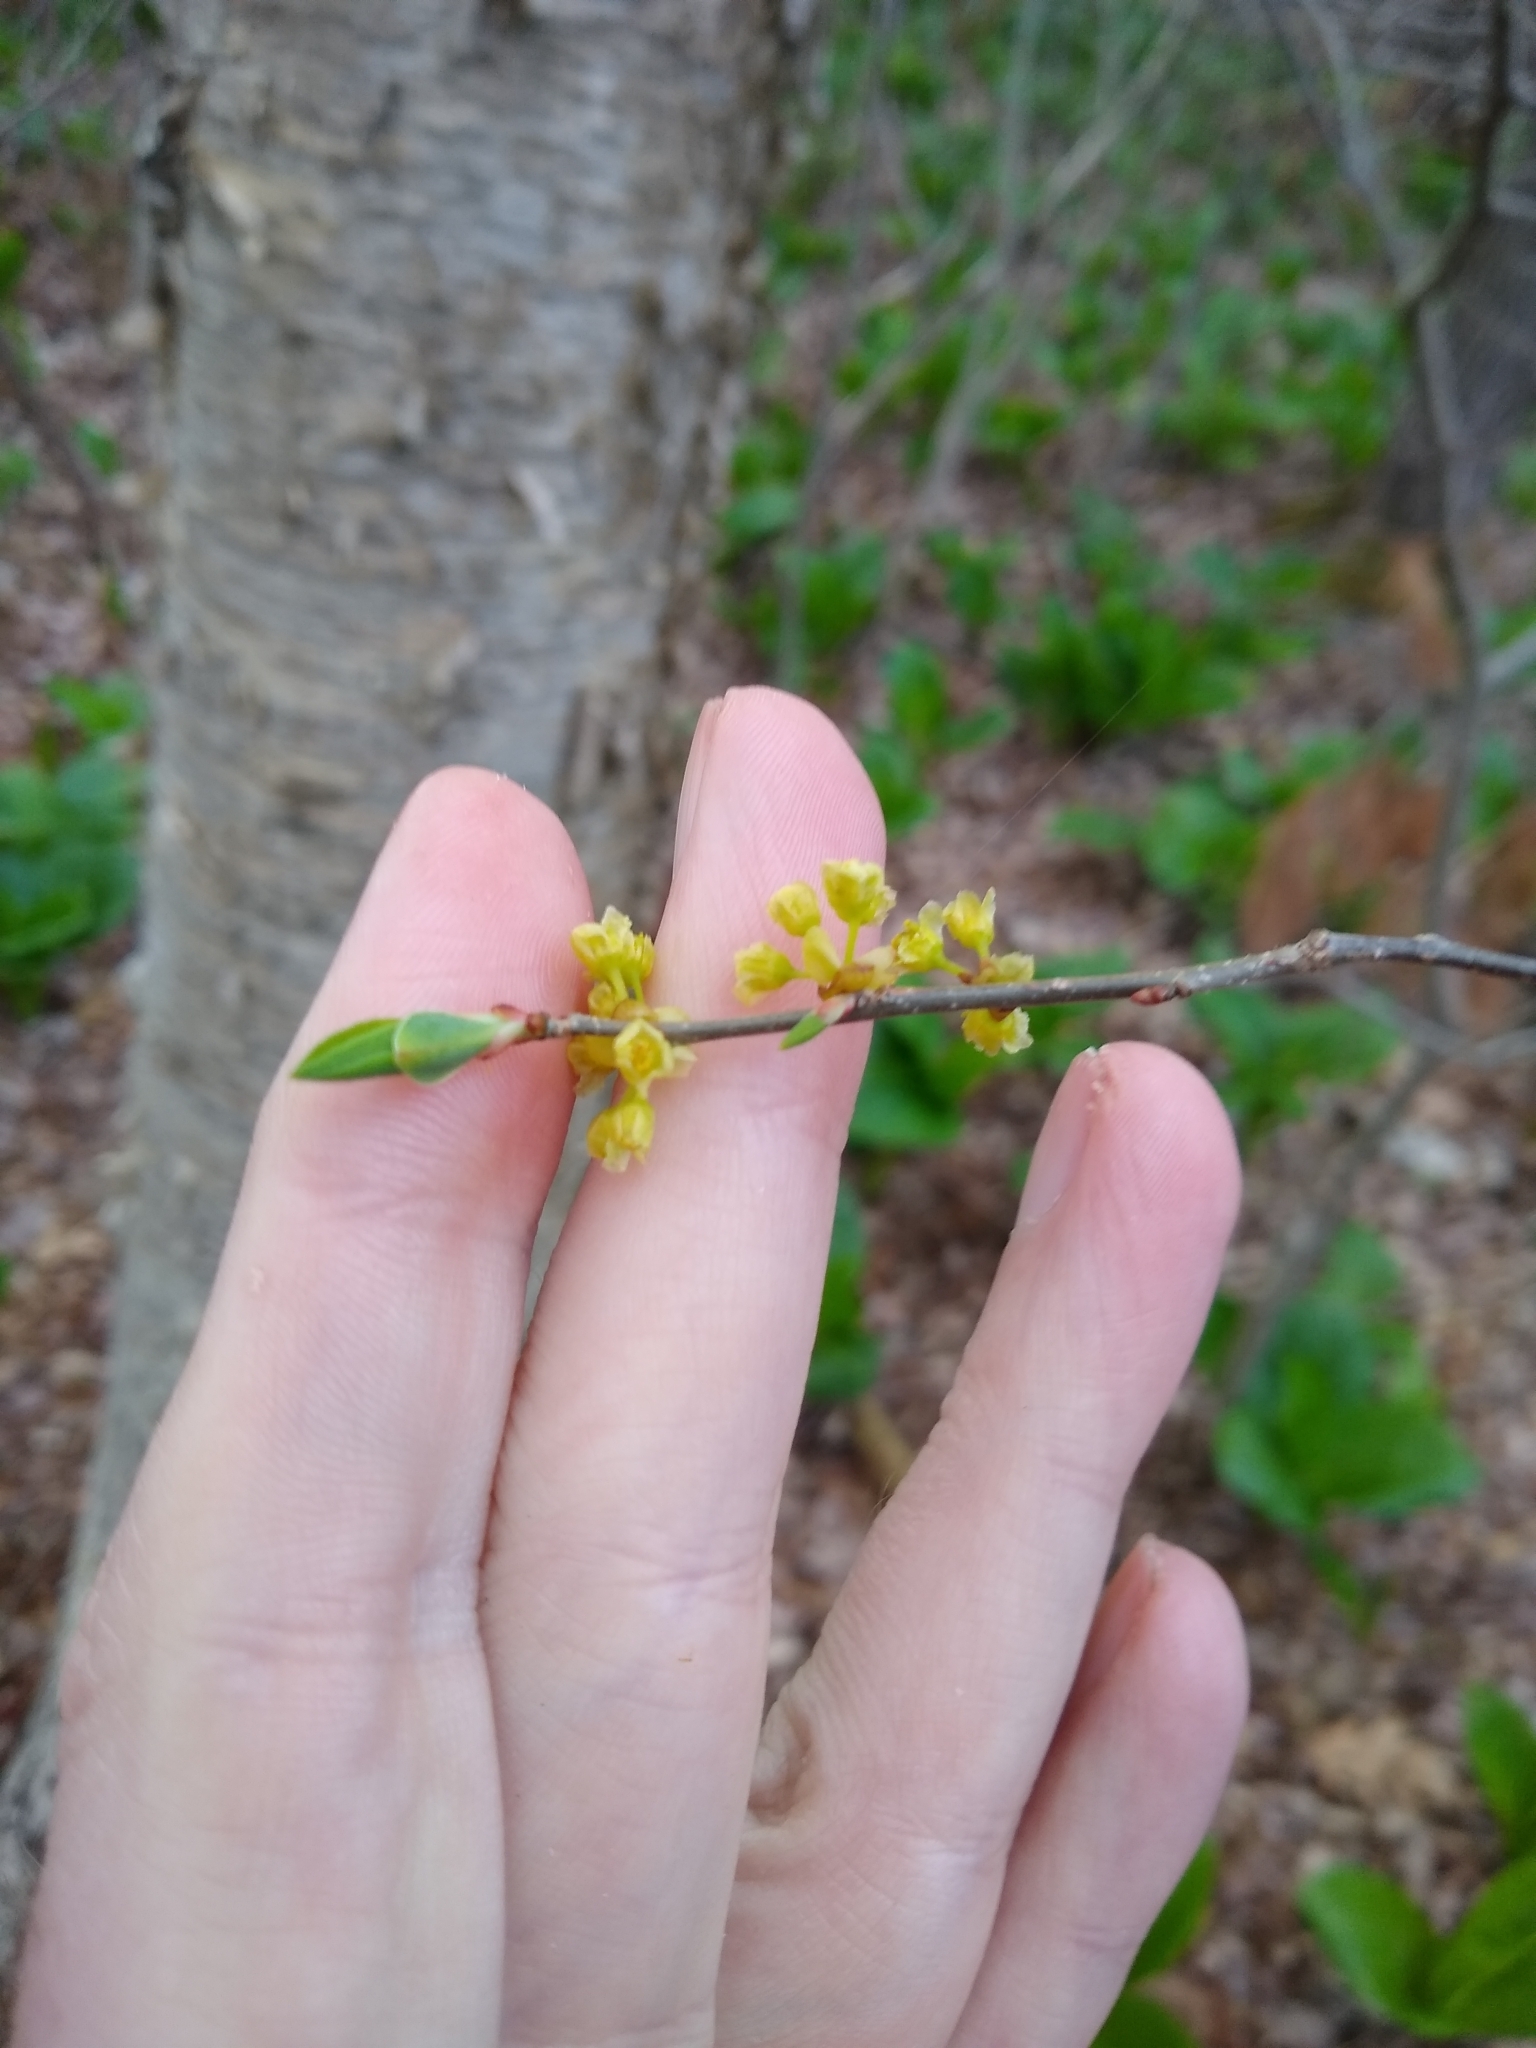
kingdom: Plantae
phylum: Tracheophyta
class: Magnoliopsida
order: Laurales
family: Lauraceae
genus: Lindera
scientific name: Lindera benzoin
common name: Spicebush
